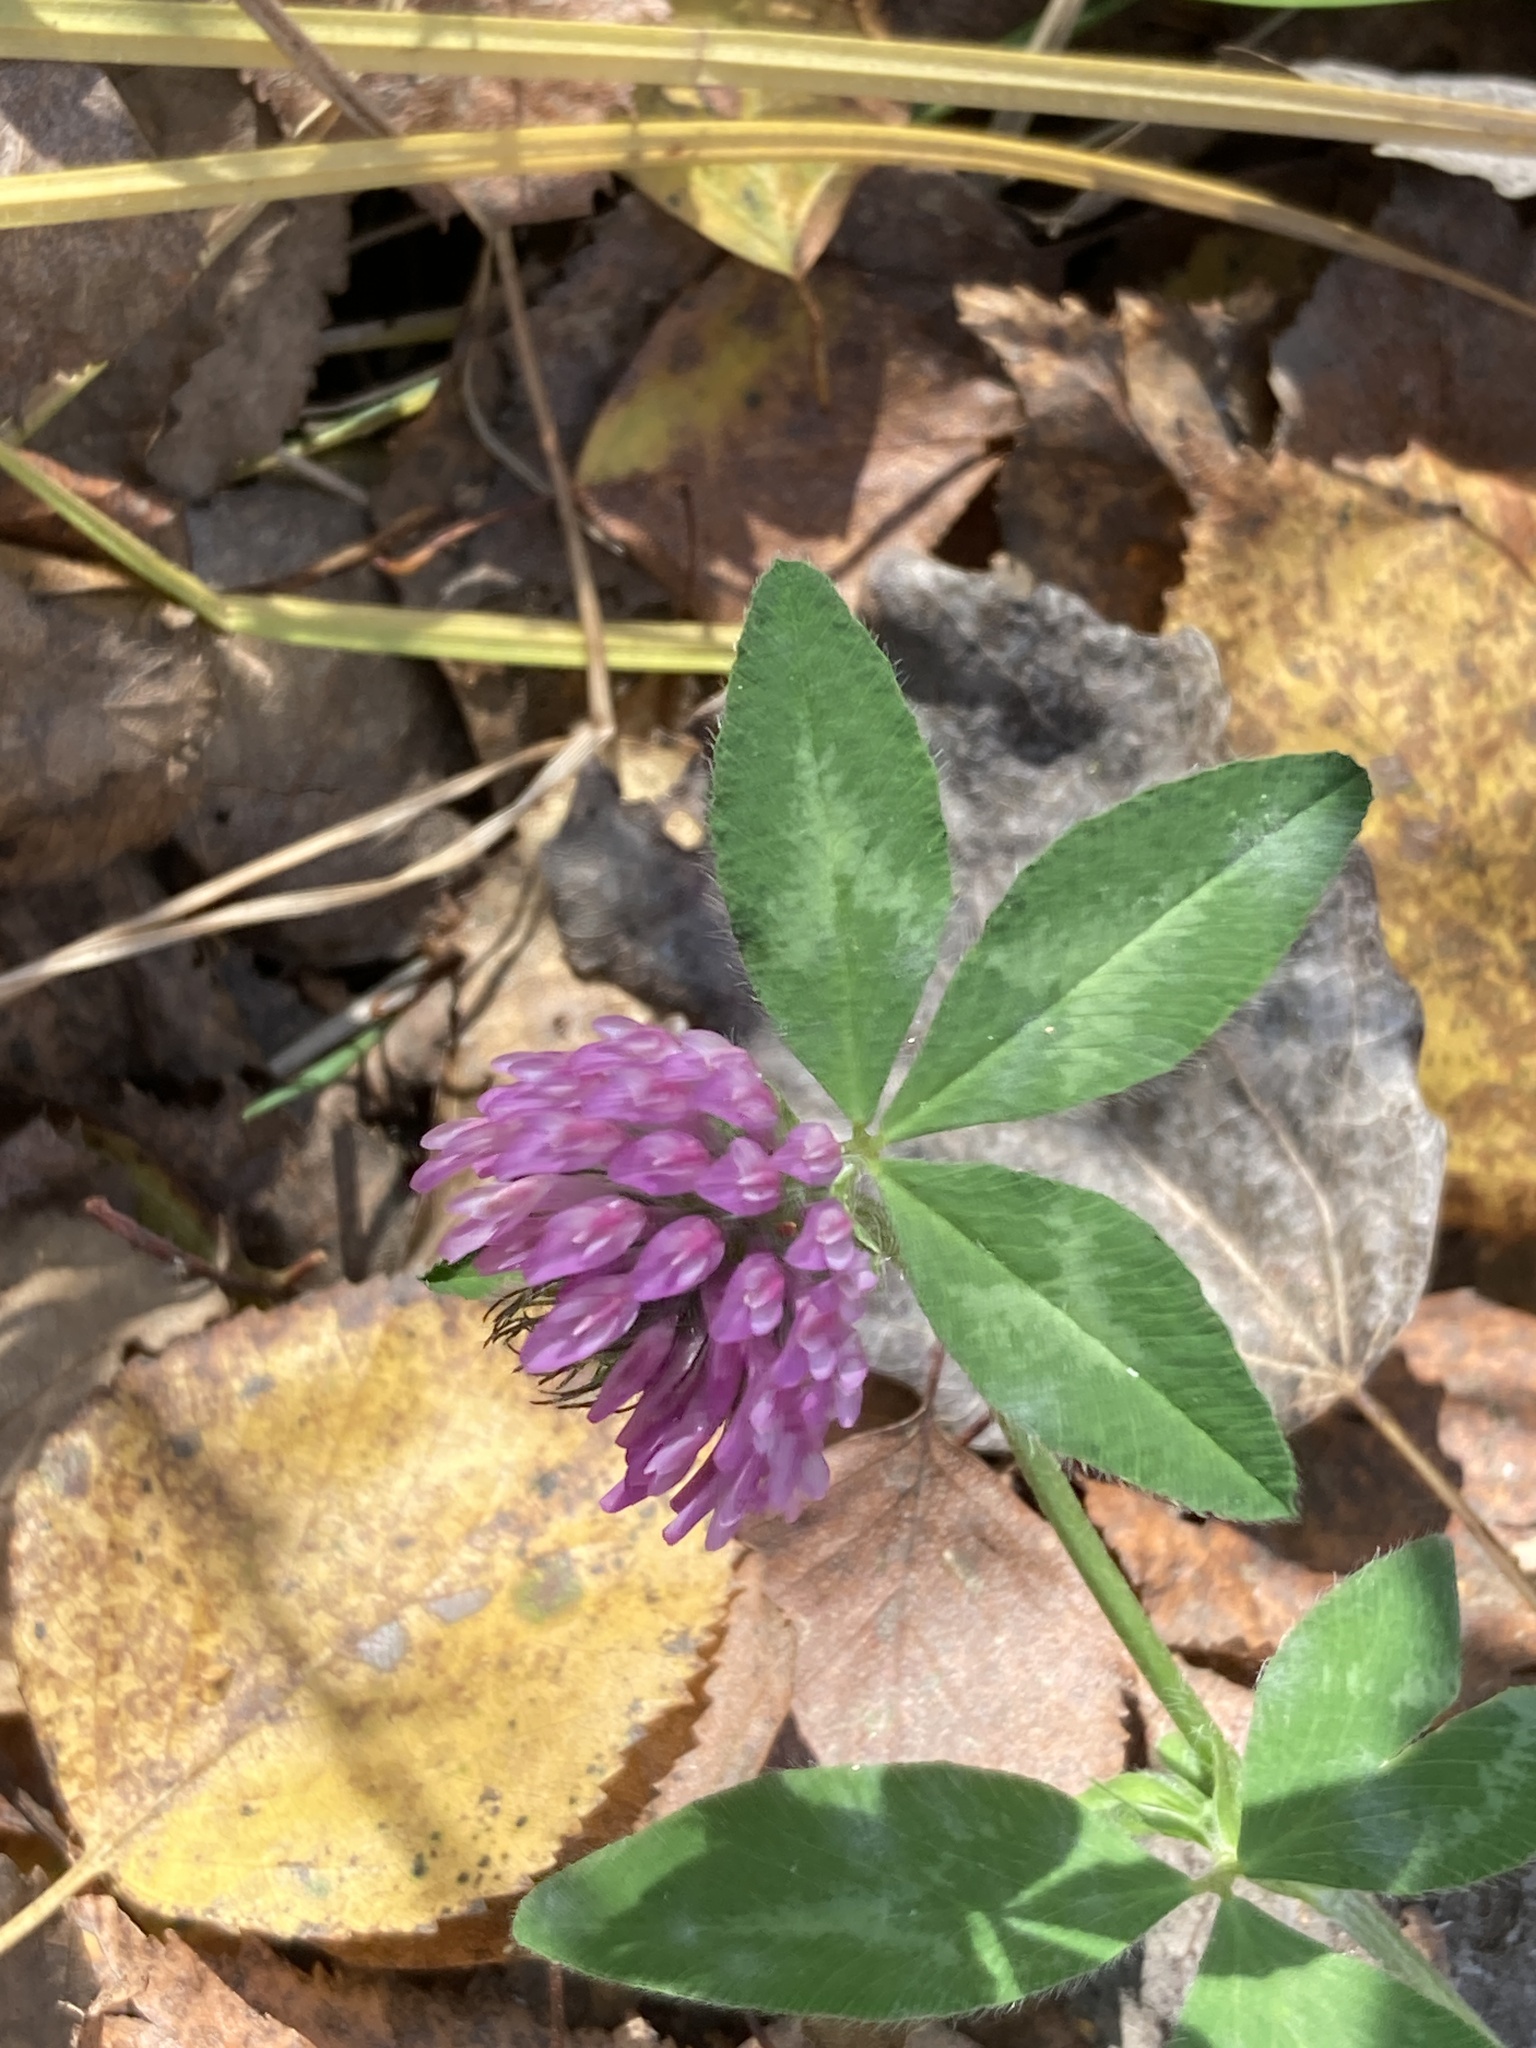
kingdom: Plantae
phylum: Tracheophyta
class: Magnoliopsida
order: Fabales
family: Fabaceae
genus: Trifolium
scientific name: Trifolium pratense
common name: Red clover
